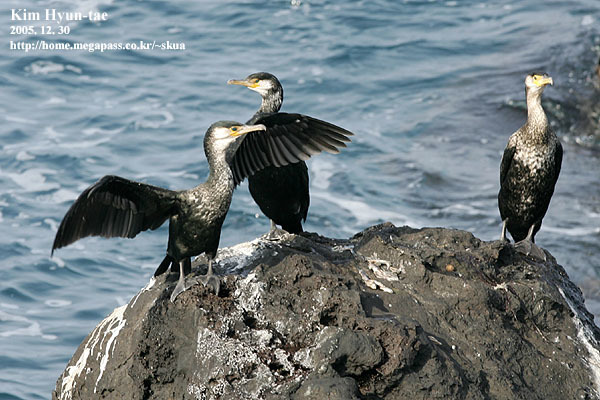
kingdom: Animalia
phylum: Chordata
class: Aves
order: Suliformes
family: Phalacrocoracidae
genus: Phalacrocorax
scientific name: Phalacrocorax capillatus
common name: Japanese cormorant
